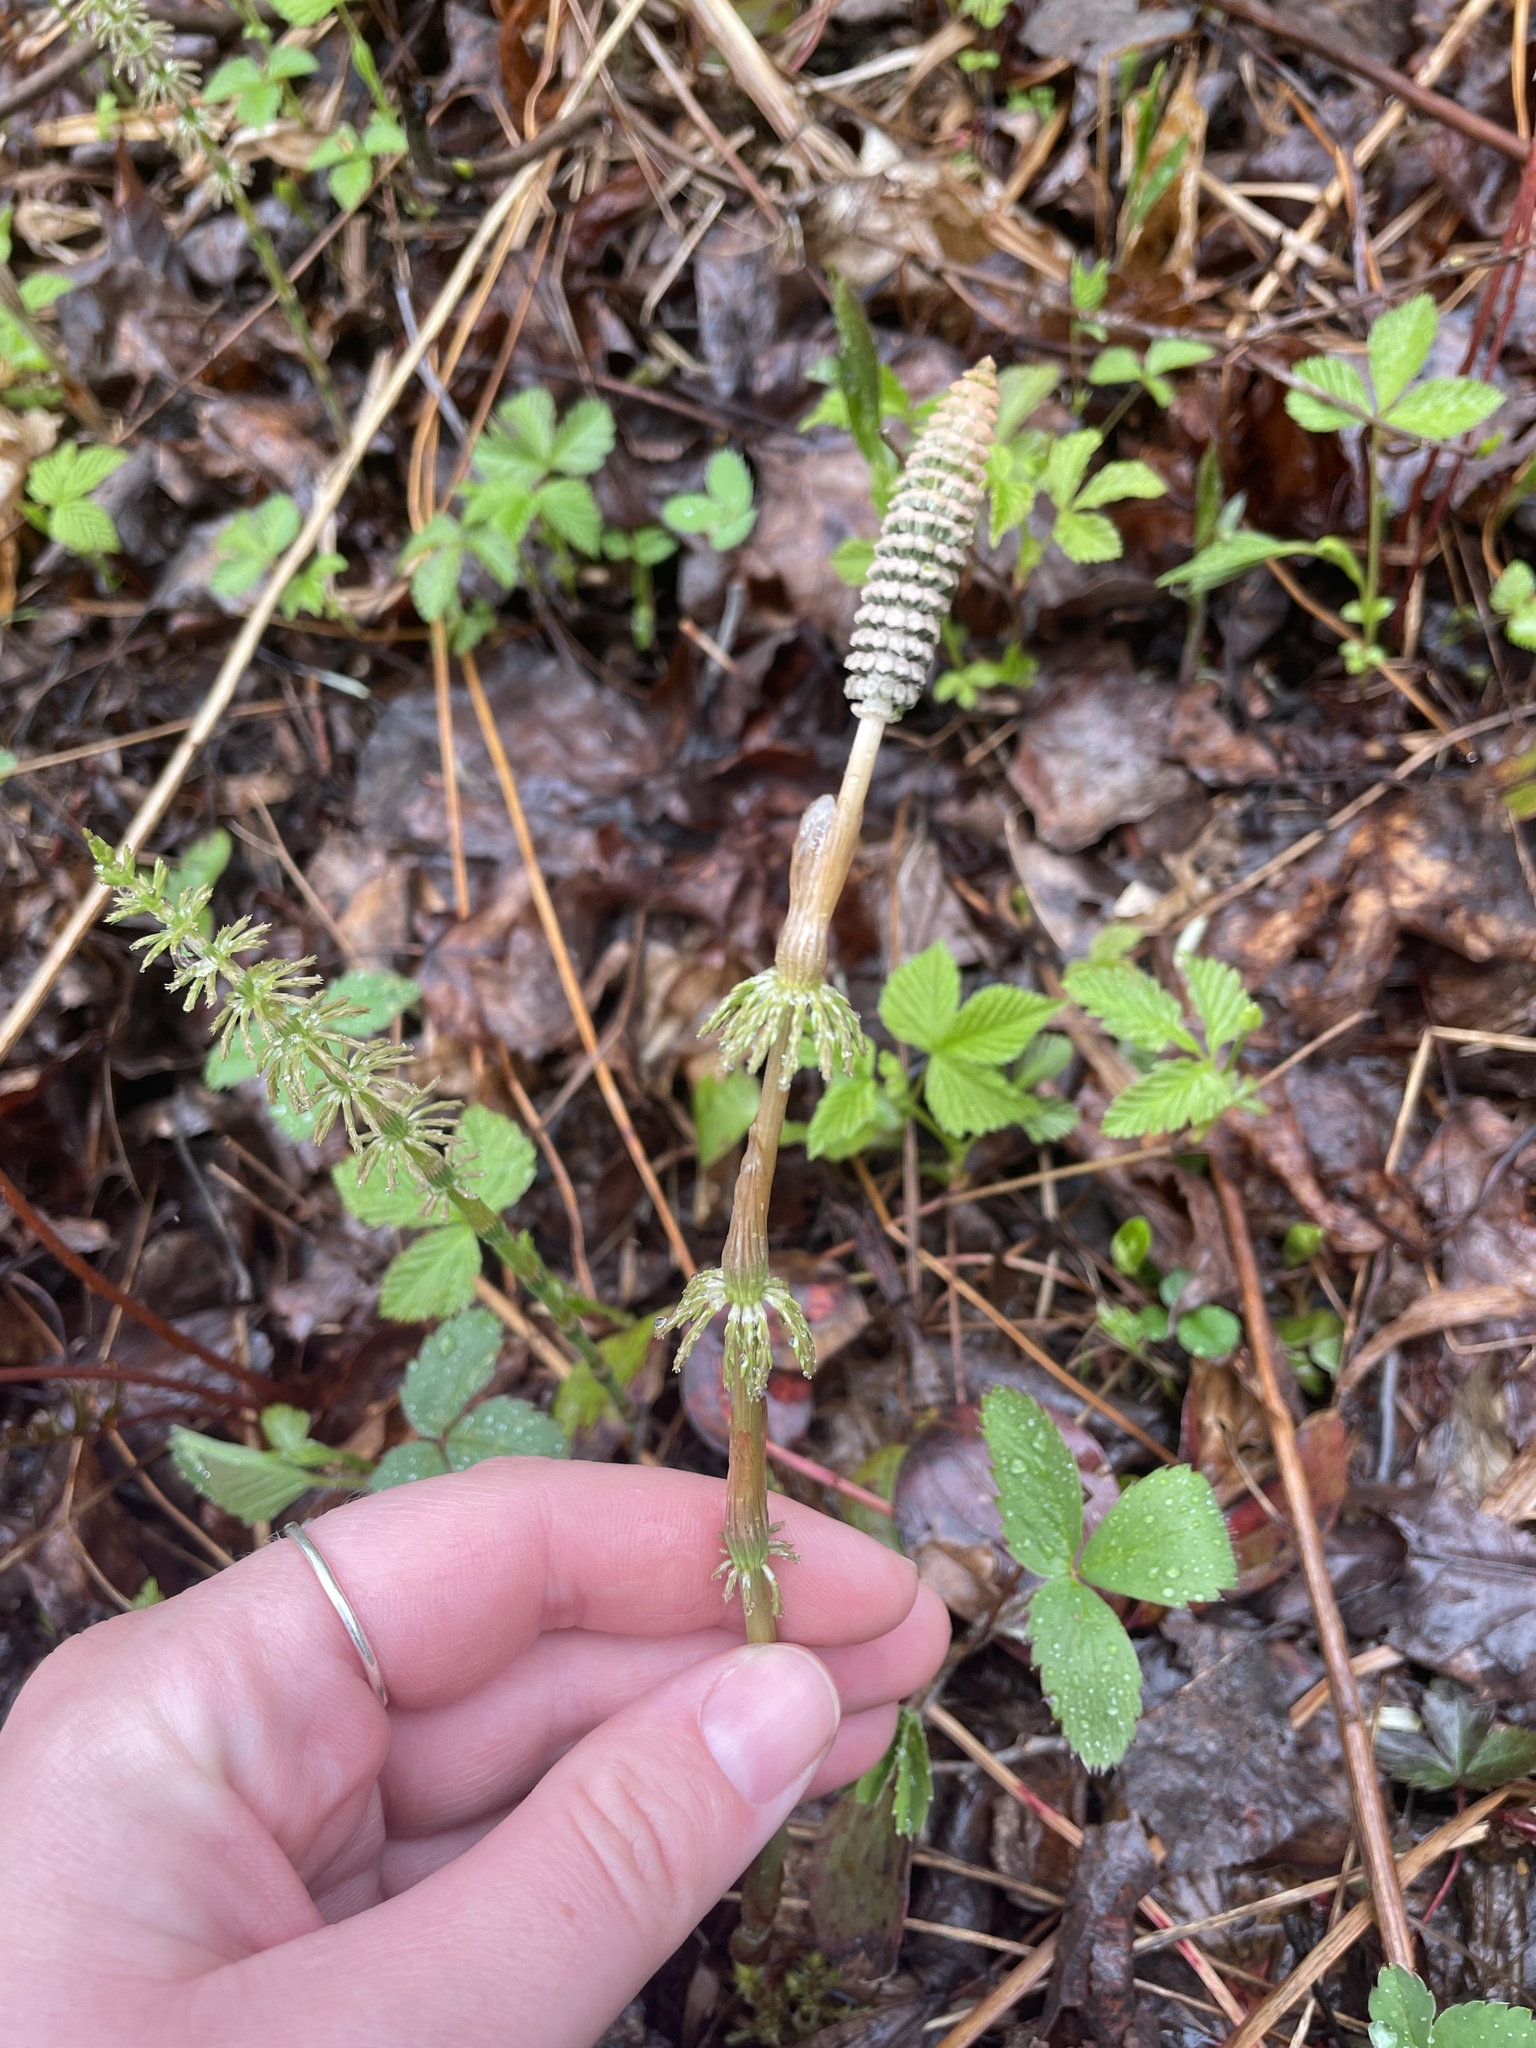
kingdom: Plantae
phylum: Tracheophyta
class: Polypodiopsida
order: Equisetales
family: Equisetaceae
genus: Equisetum
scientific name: Equisetum sylvaticum
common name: Wood horsetail
